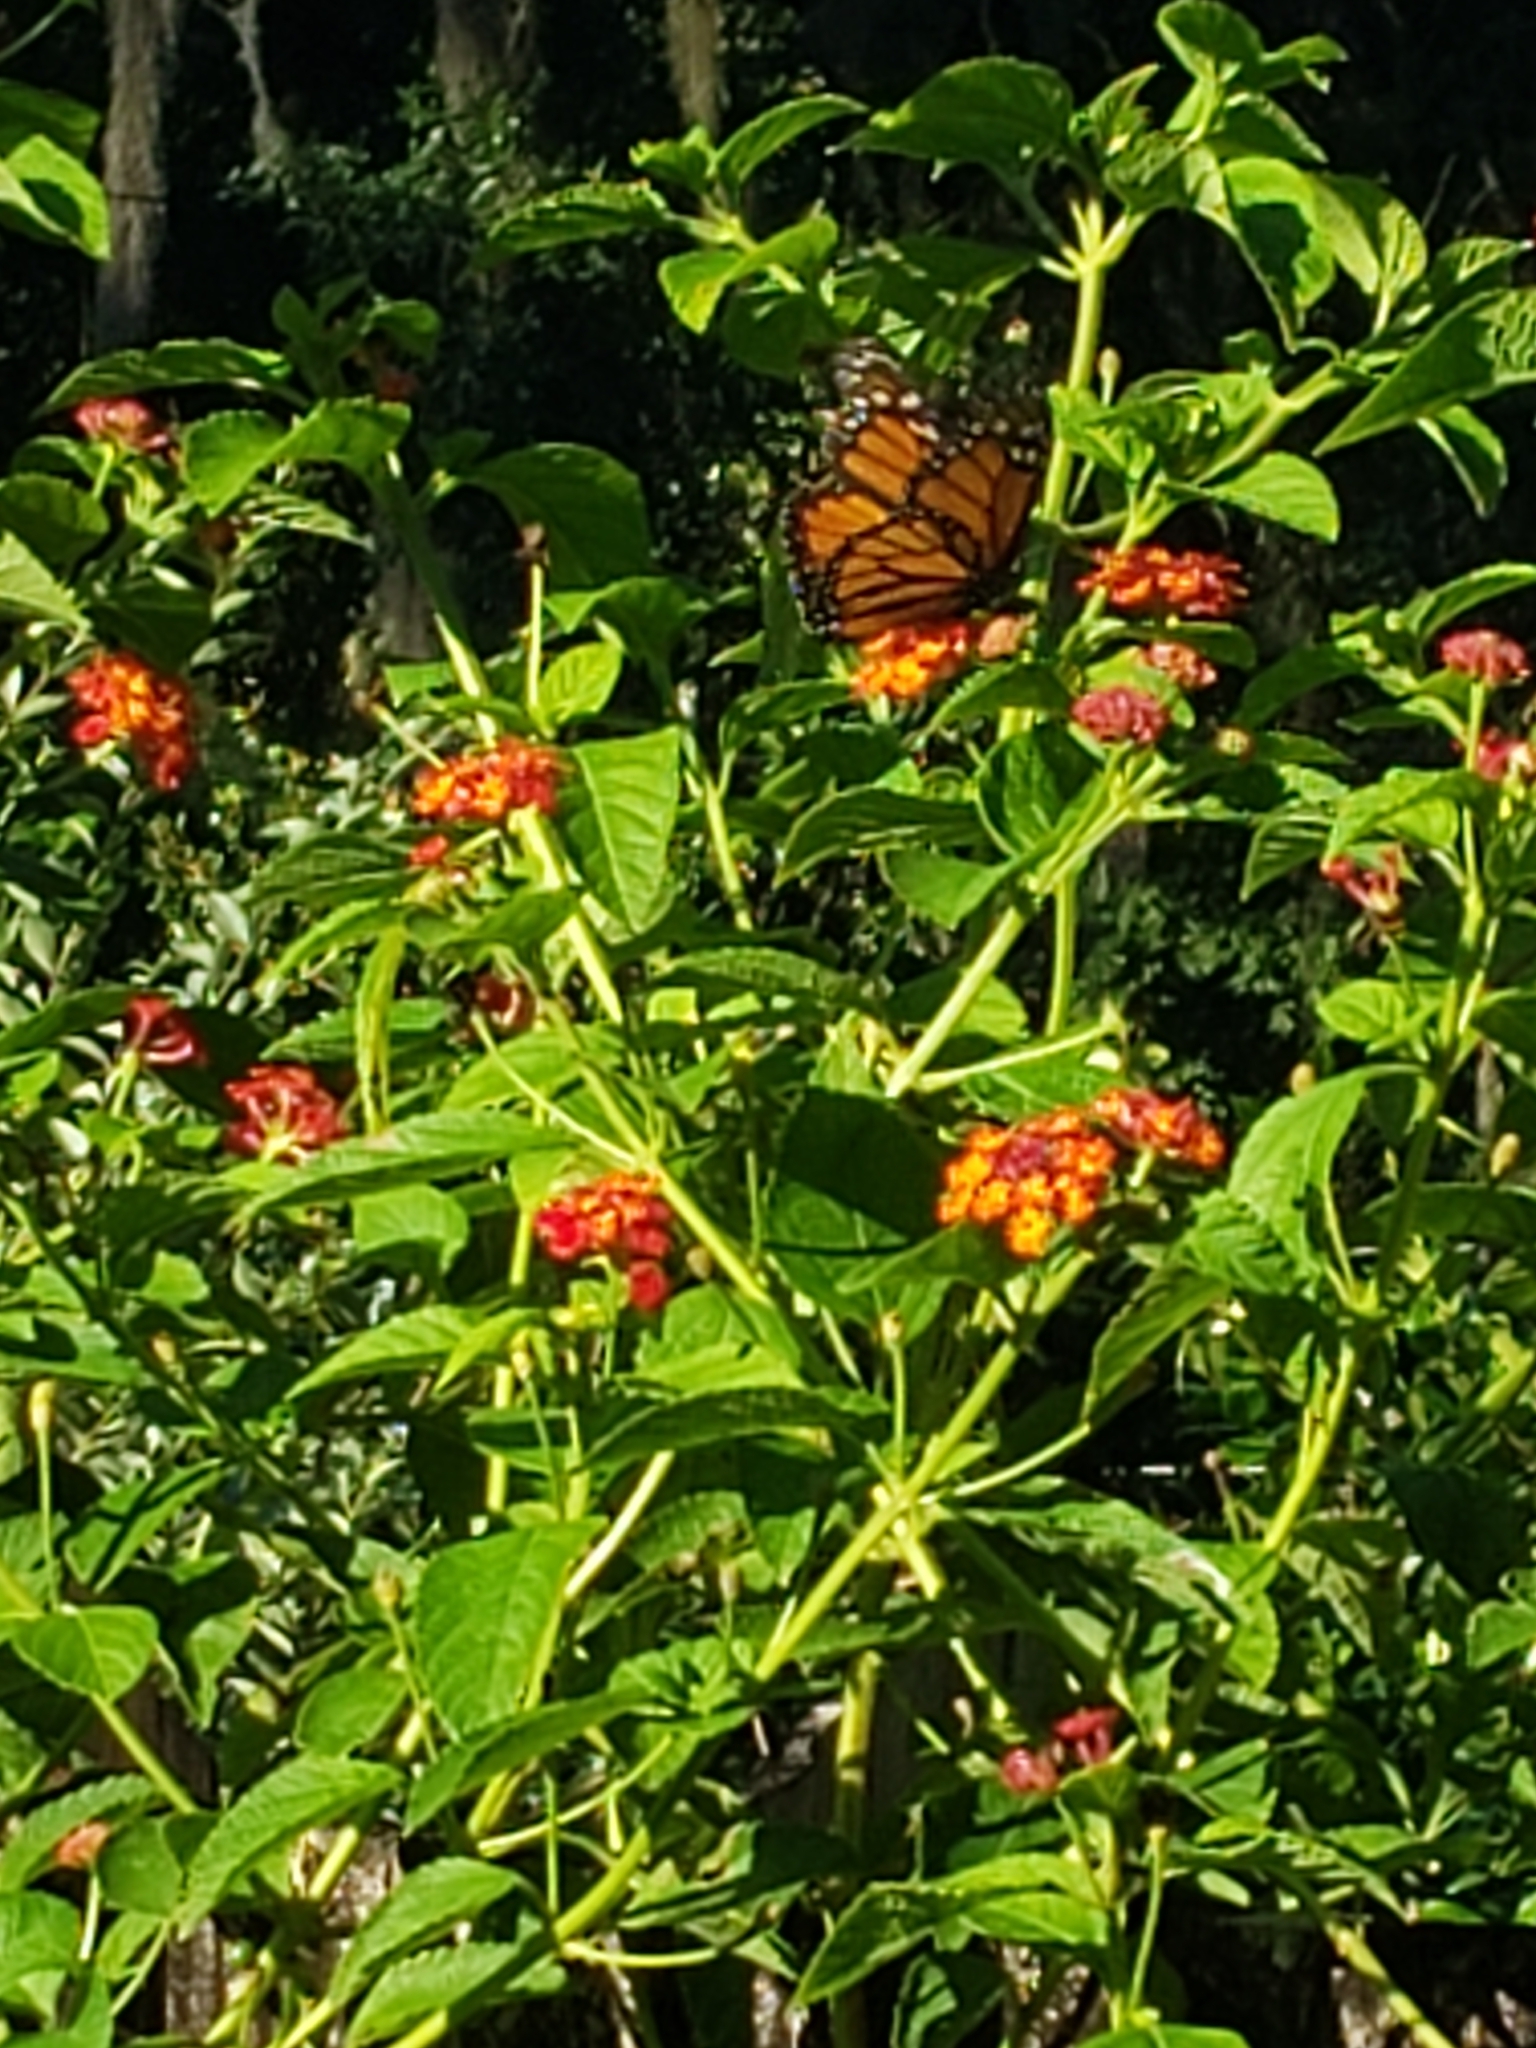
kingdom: Animalia
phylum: Arthropoda
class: Insecta
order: Lepidoptera
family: Nymphalidae
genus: Danaus
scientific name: Danaus plexippus
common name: Monarch
